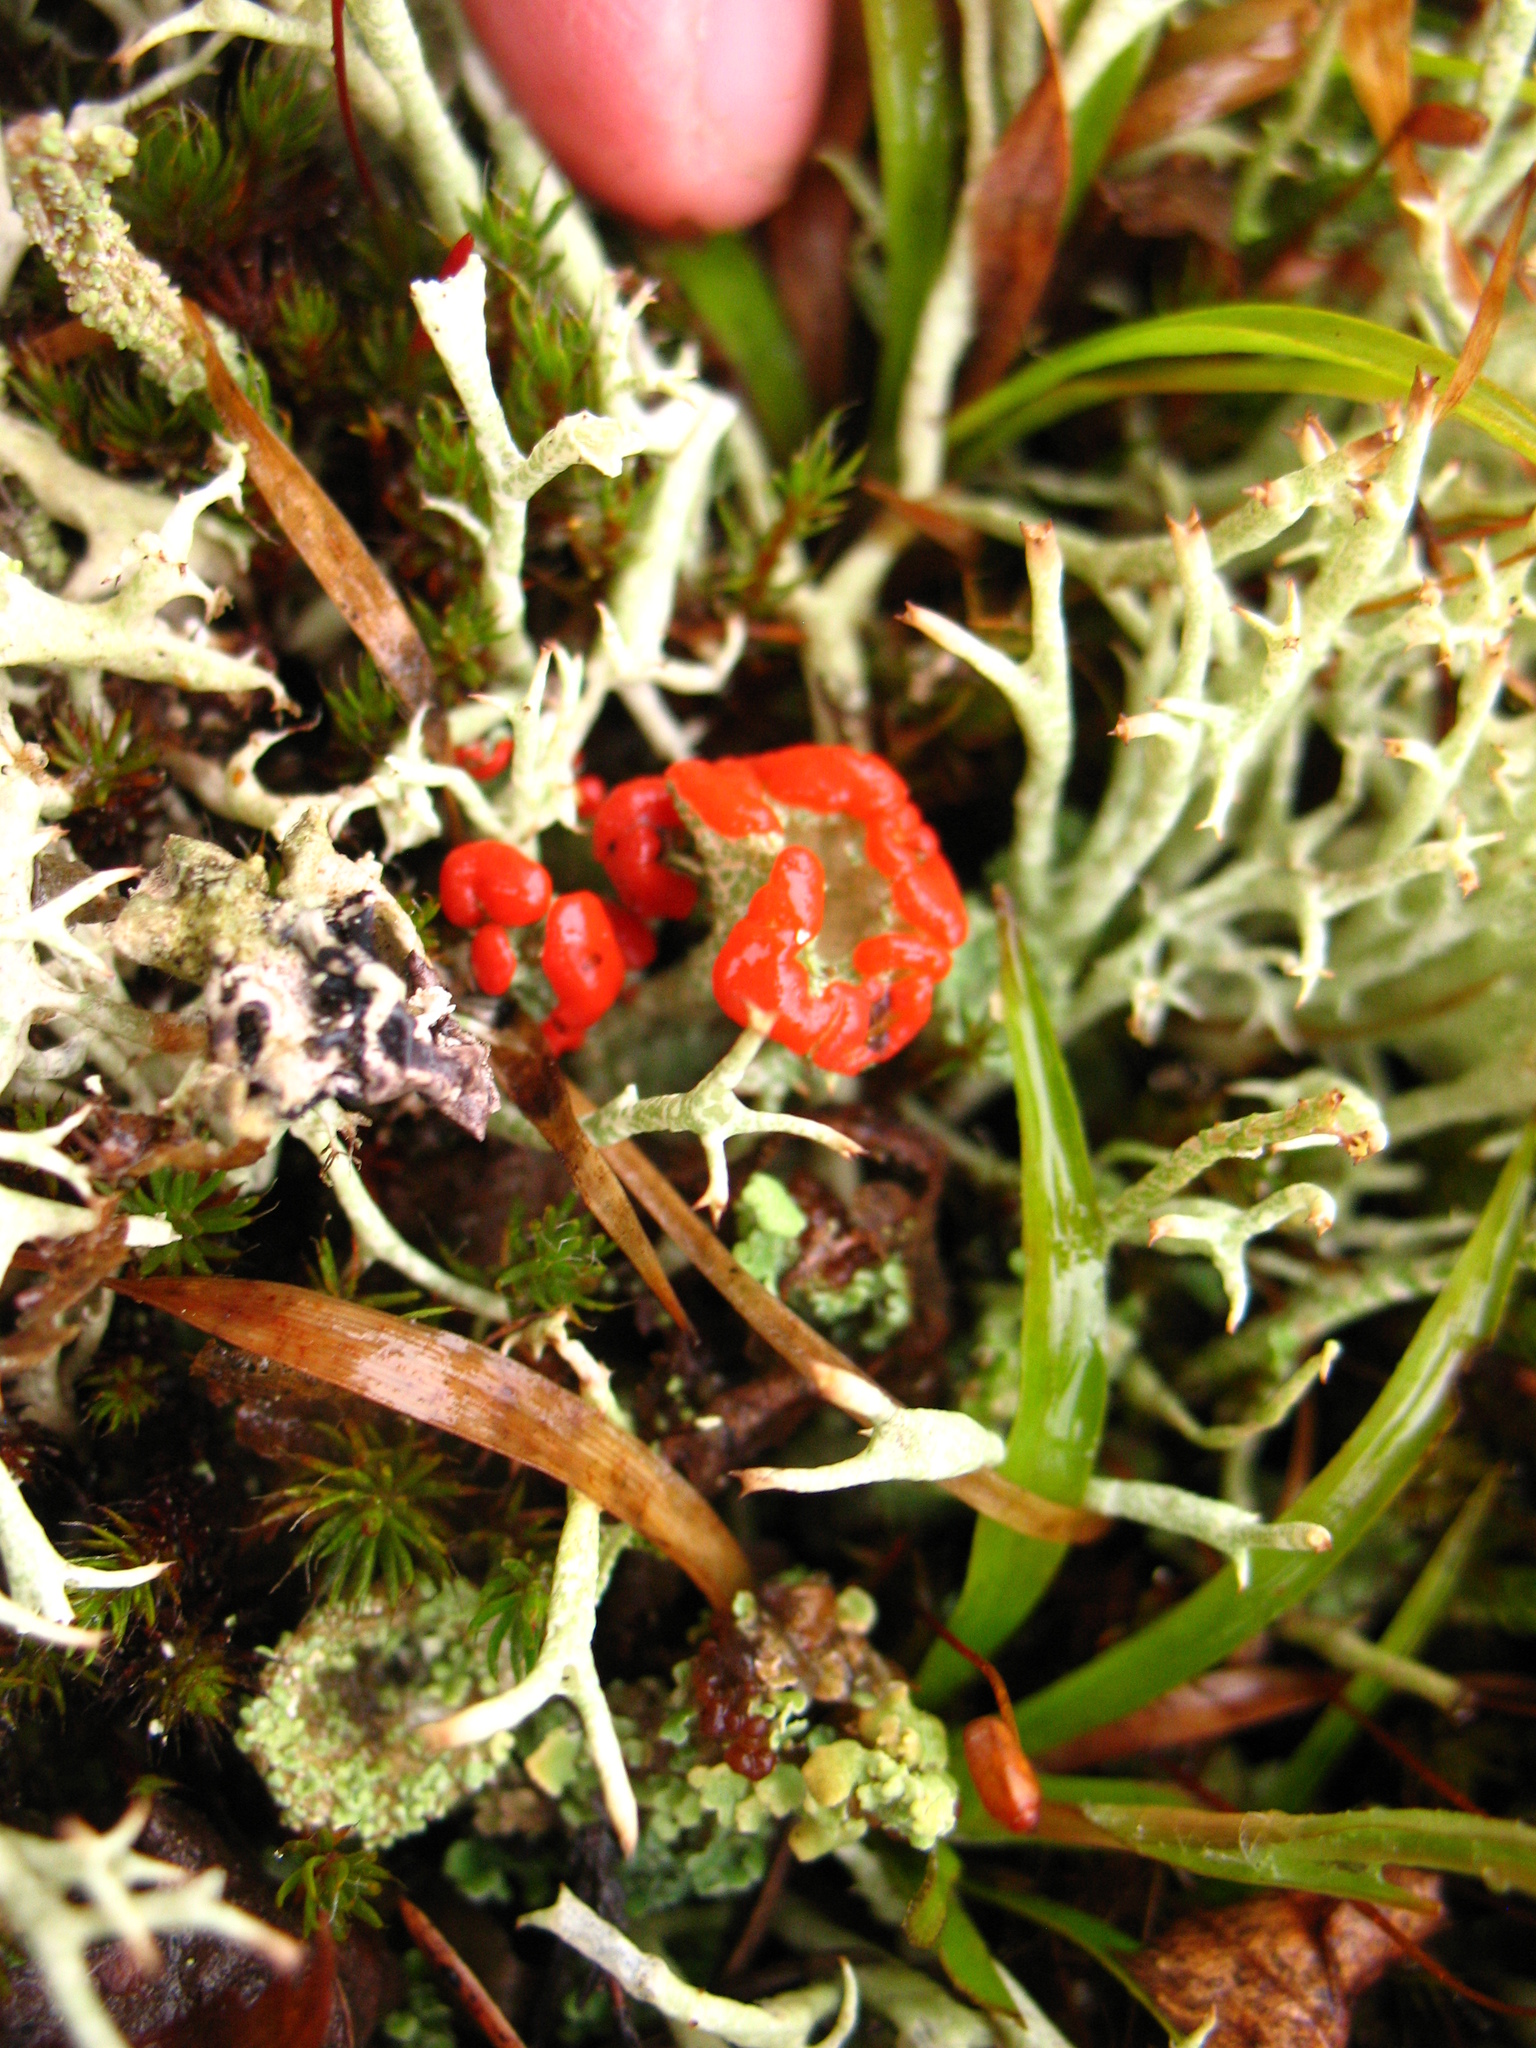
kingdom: Fungi
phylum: Ascomycota
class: Lecanoromycetes
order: Lecanorales
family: Cladoniaceae
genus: Cladonia
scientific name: Cladonia coccifera
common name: Scarlet-cup lichen
